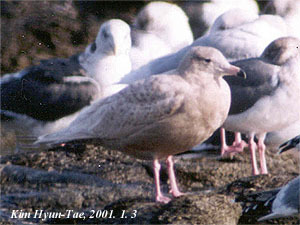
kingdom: Animalia
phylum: Chordata
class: Aves
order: Charadriiformes
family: Laridae
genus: Larus
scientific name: Larus hyperboreus
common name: Glaucous gull
